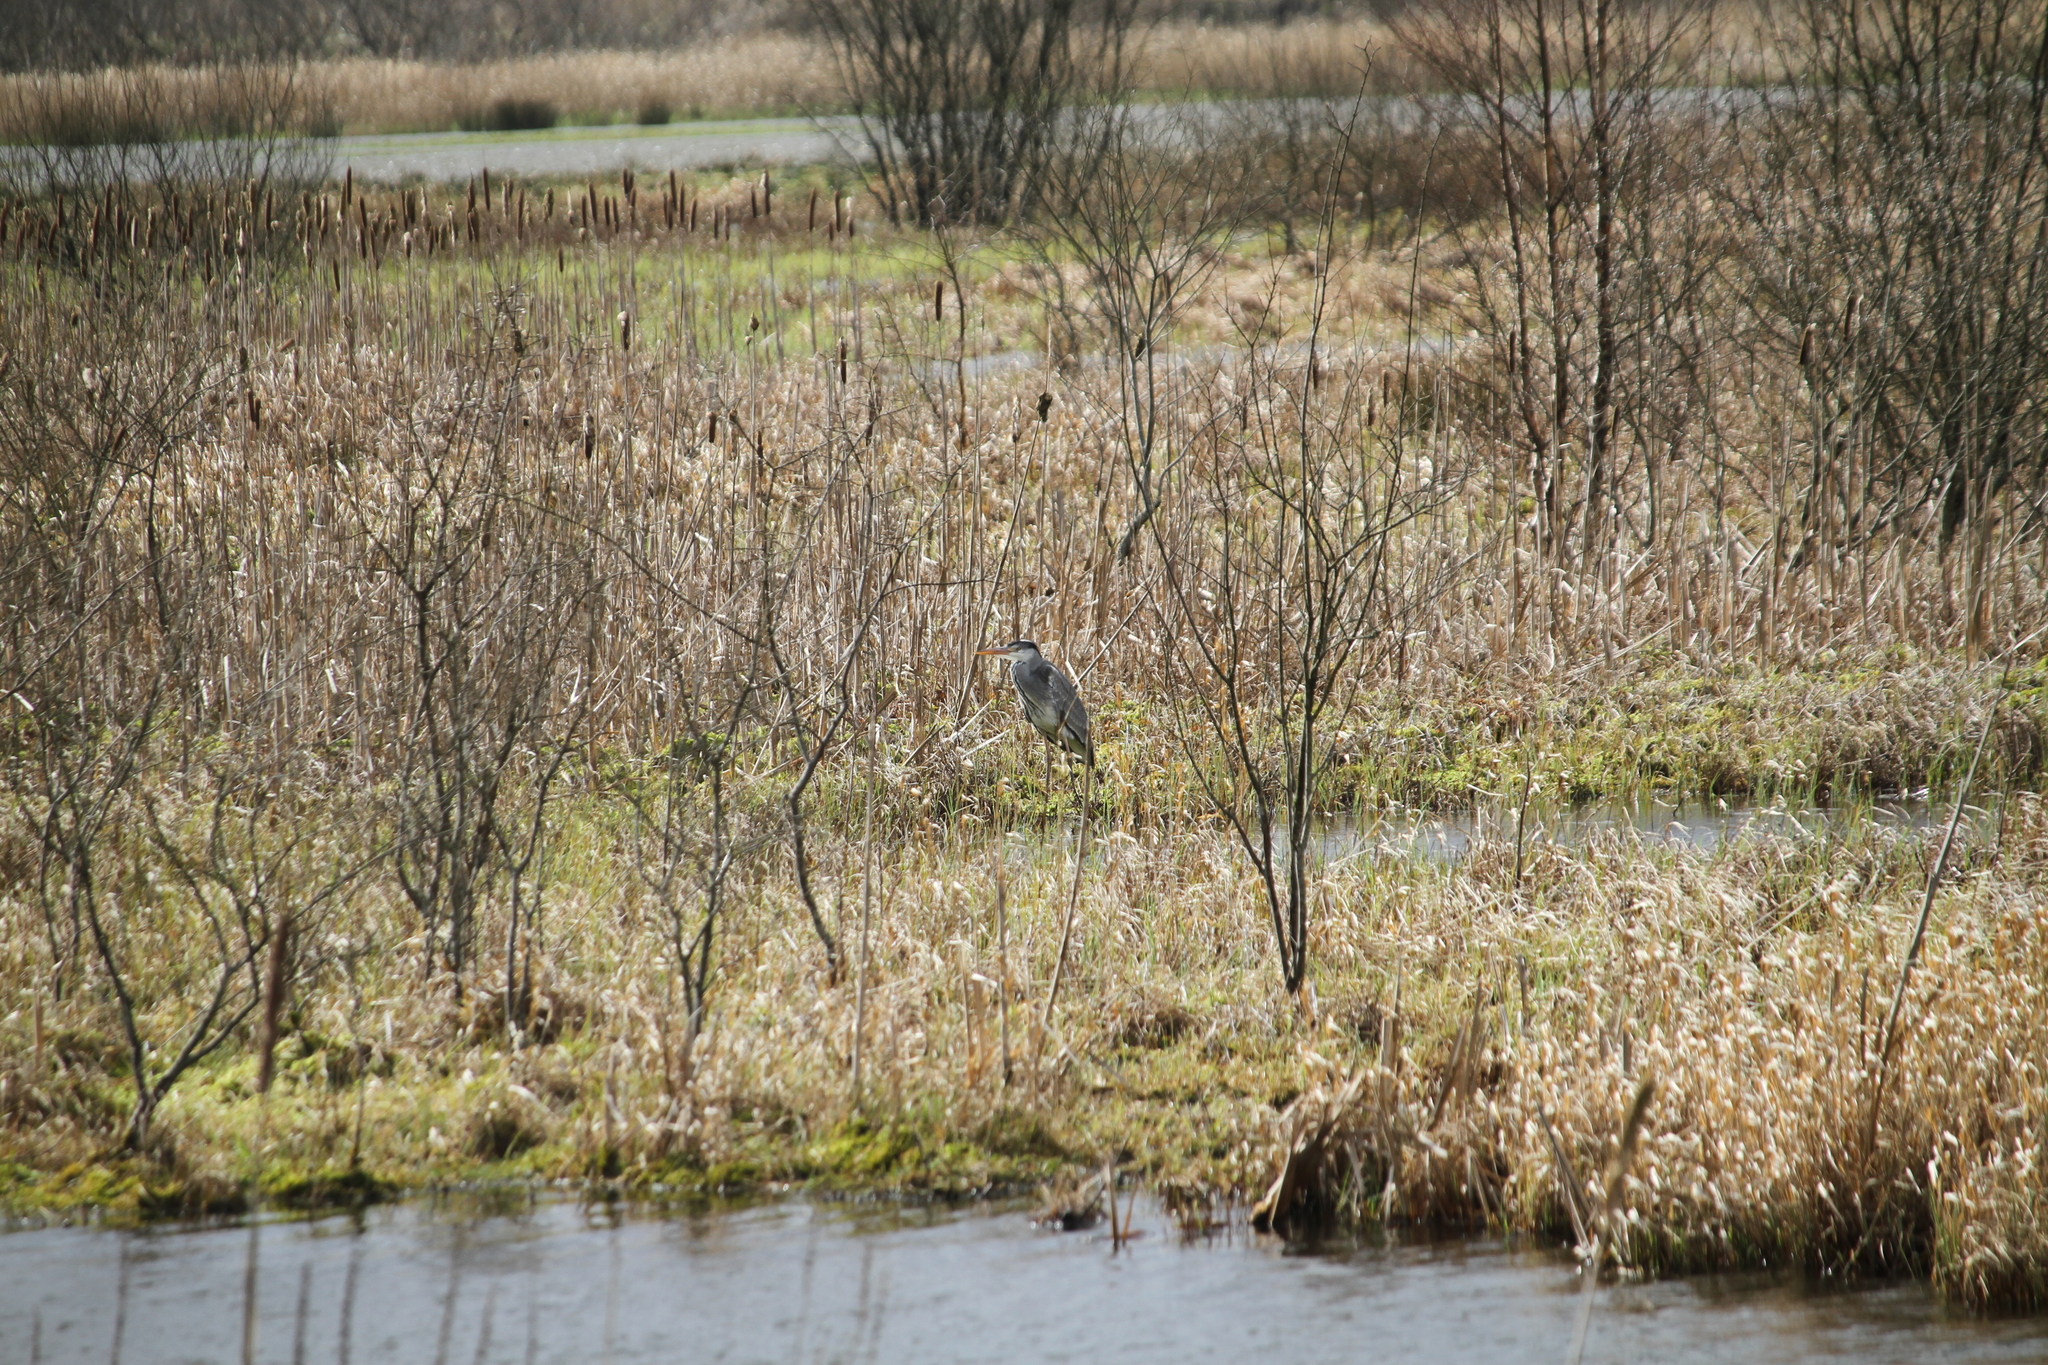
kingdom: Animalia
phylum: Chordata
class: Aves
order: Pelecaniformes
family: Ardeidae
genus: Ardea
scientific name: Ardea cinerea
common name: Grey heron
